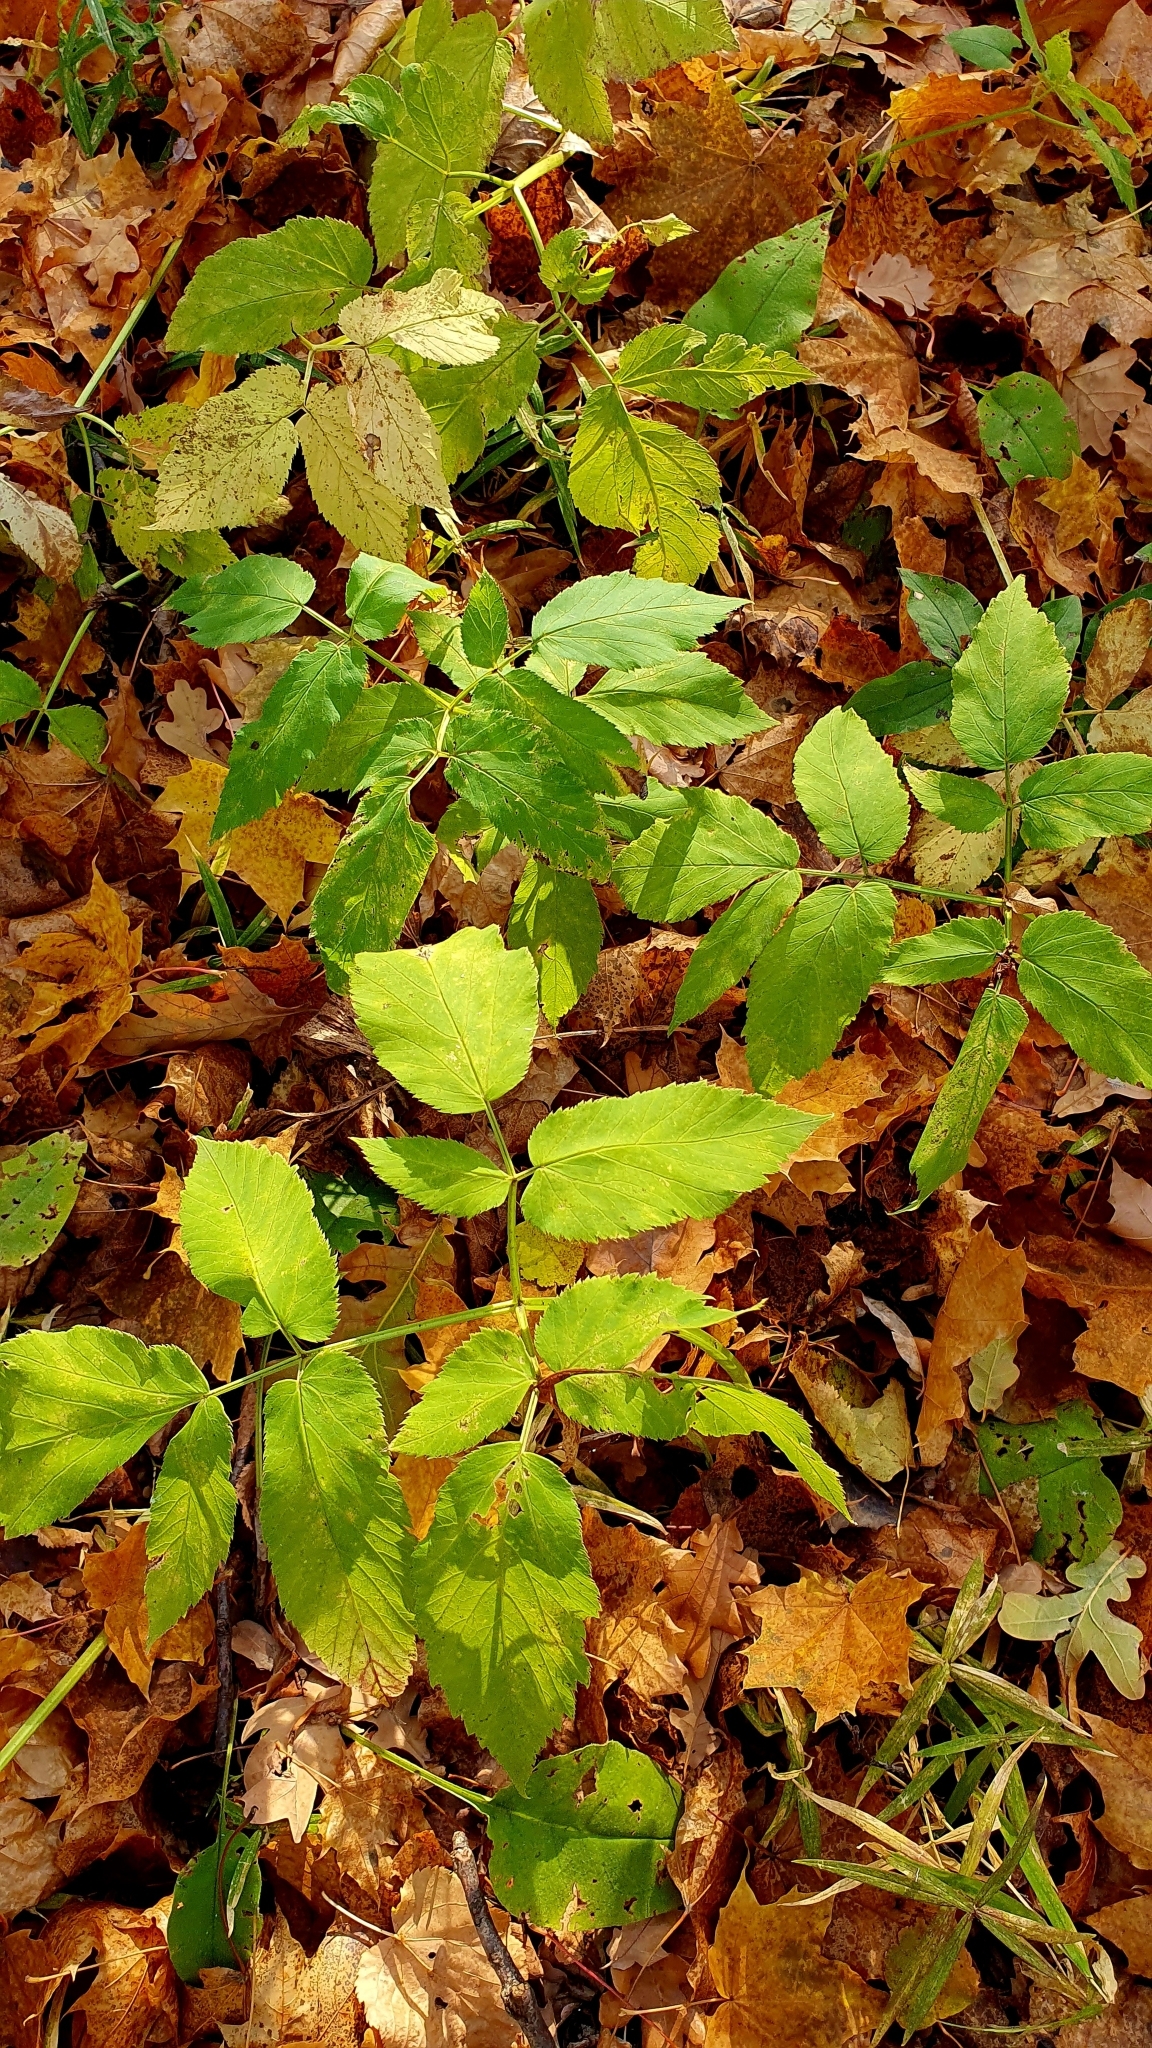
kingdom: Plantae
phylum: Tracheophyta
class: Magnoliopsida
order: Apiales
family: Apiaceae
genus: Aegopodium
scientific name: Aegopodium podagraria
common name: Ground-elder
